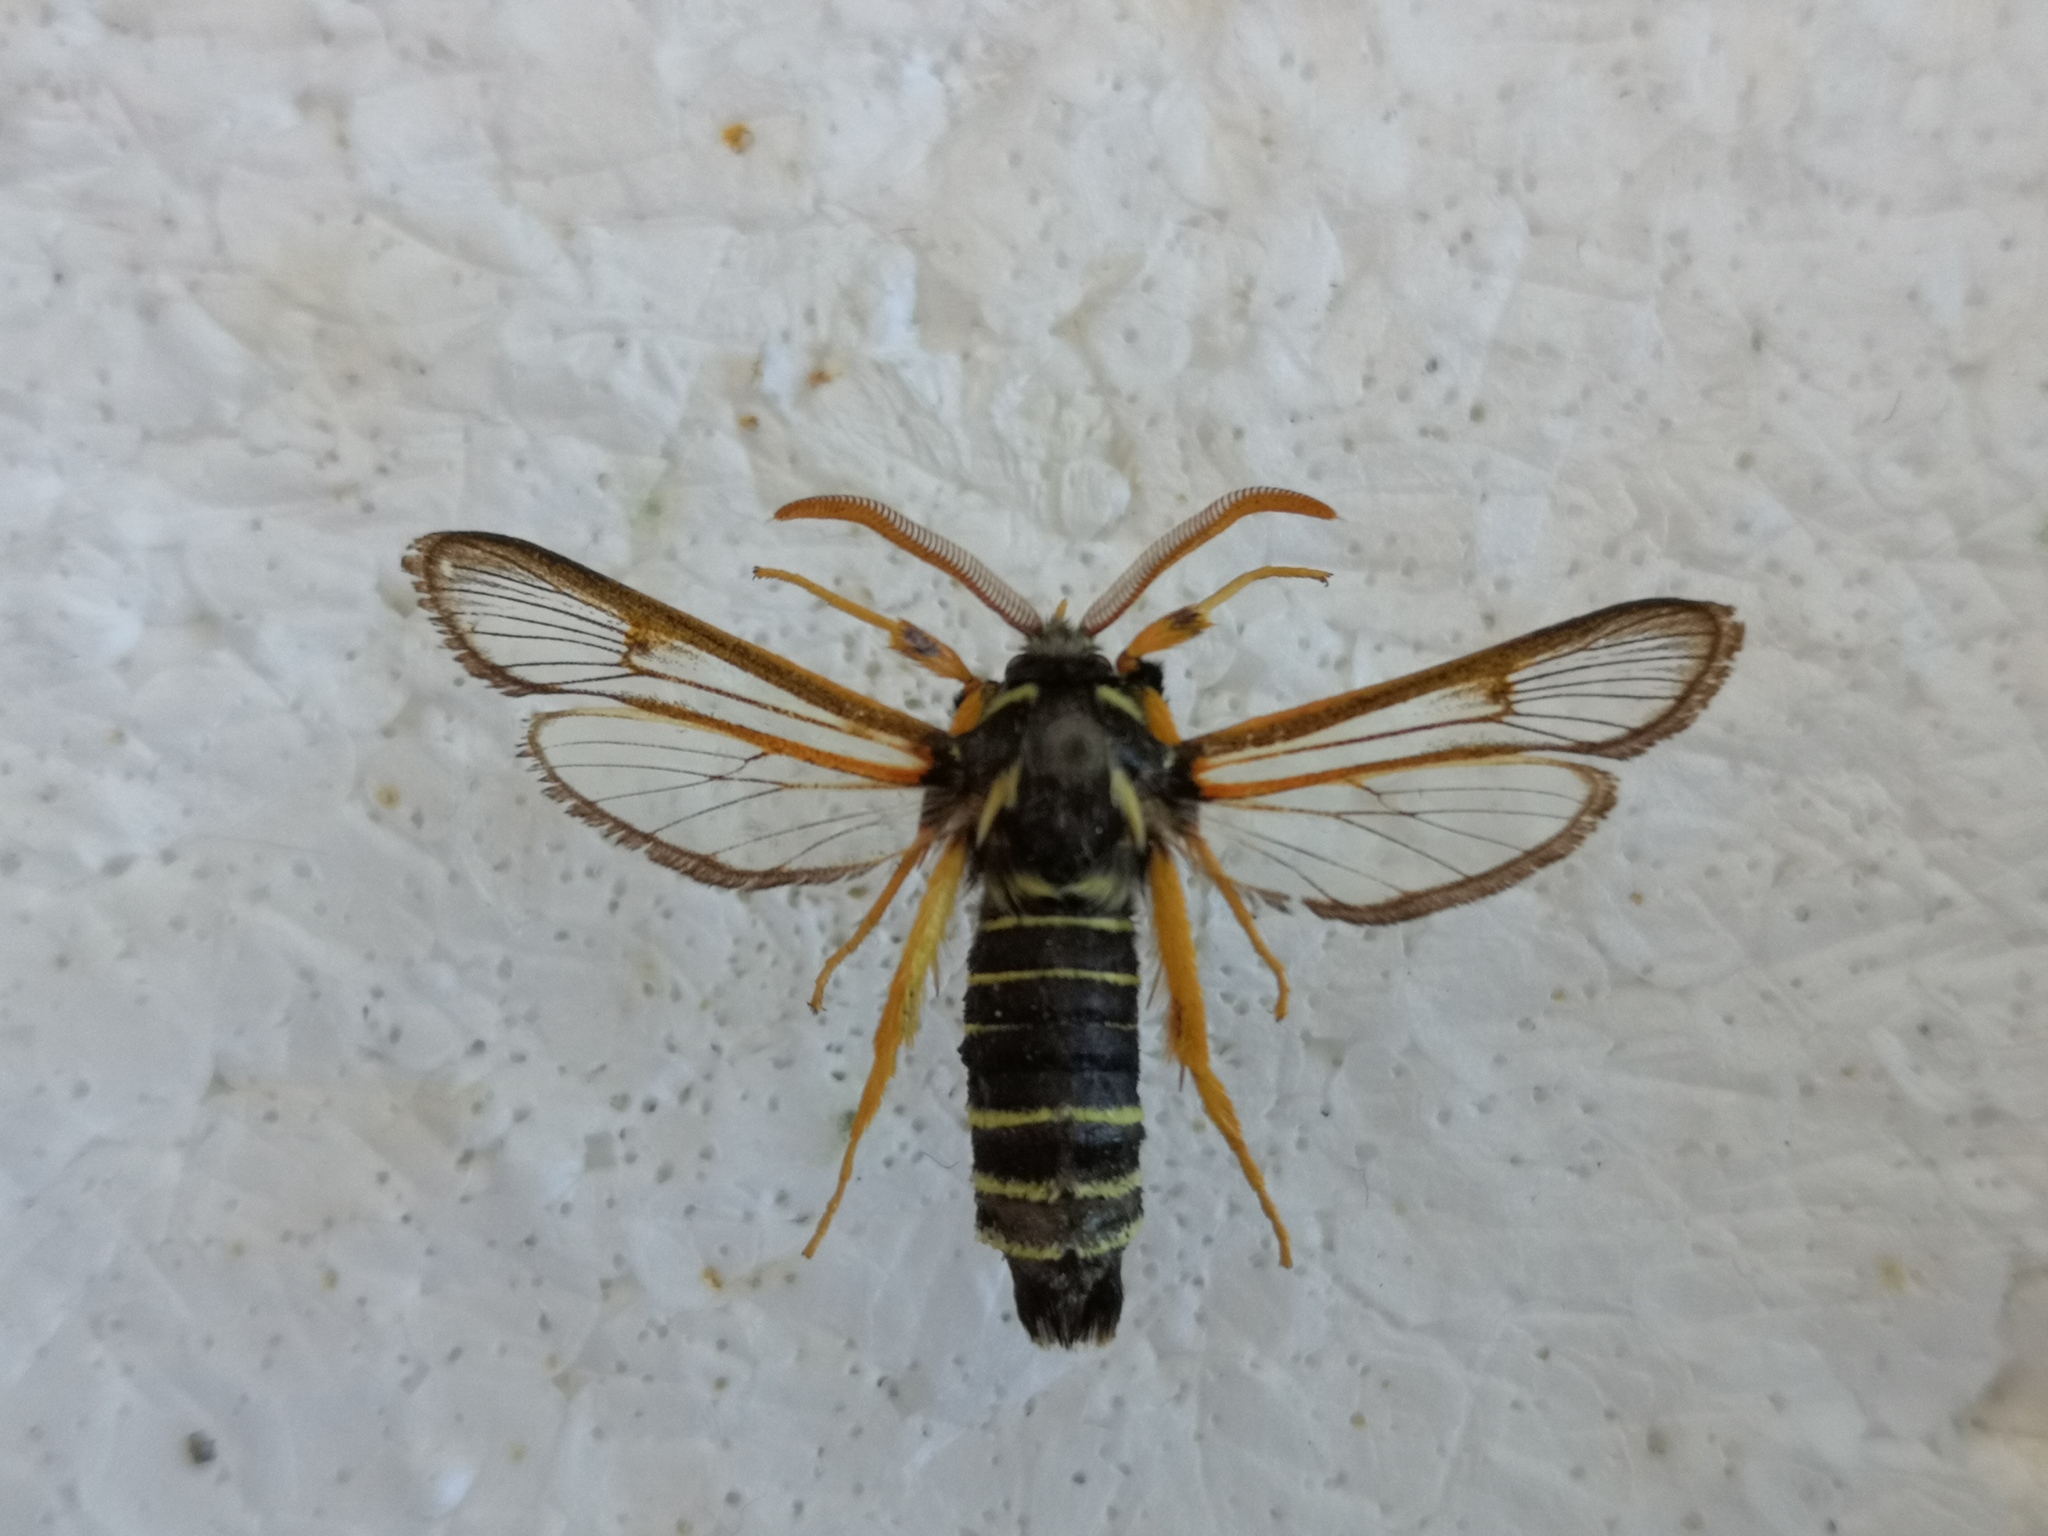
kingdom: Animalia
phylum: Arthropoda
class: Insecta
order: Lepidoptera
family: Sesiidae
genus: Eusphecia
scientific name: Eusphecia melanocephala
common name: Aspen clearwing
